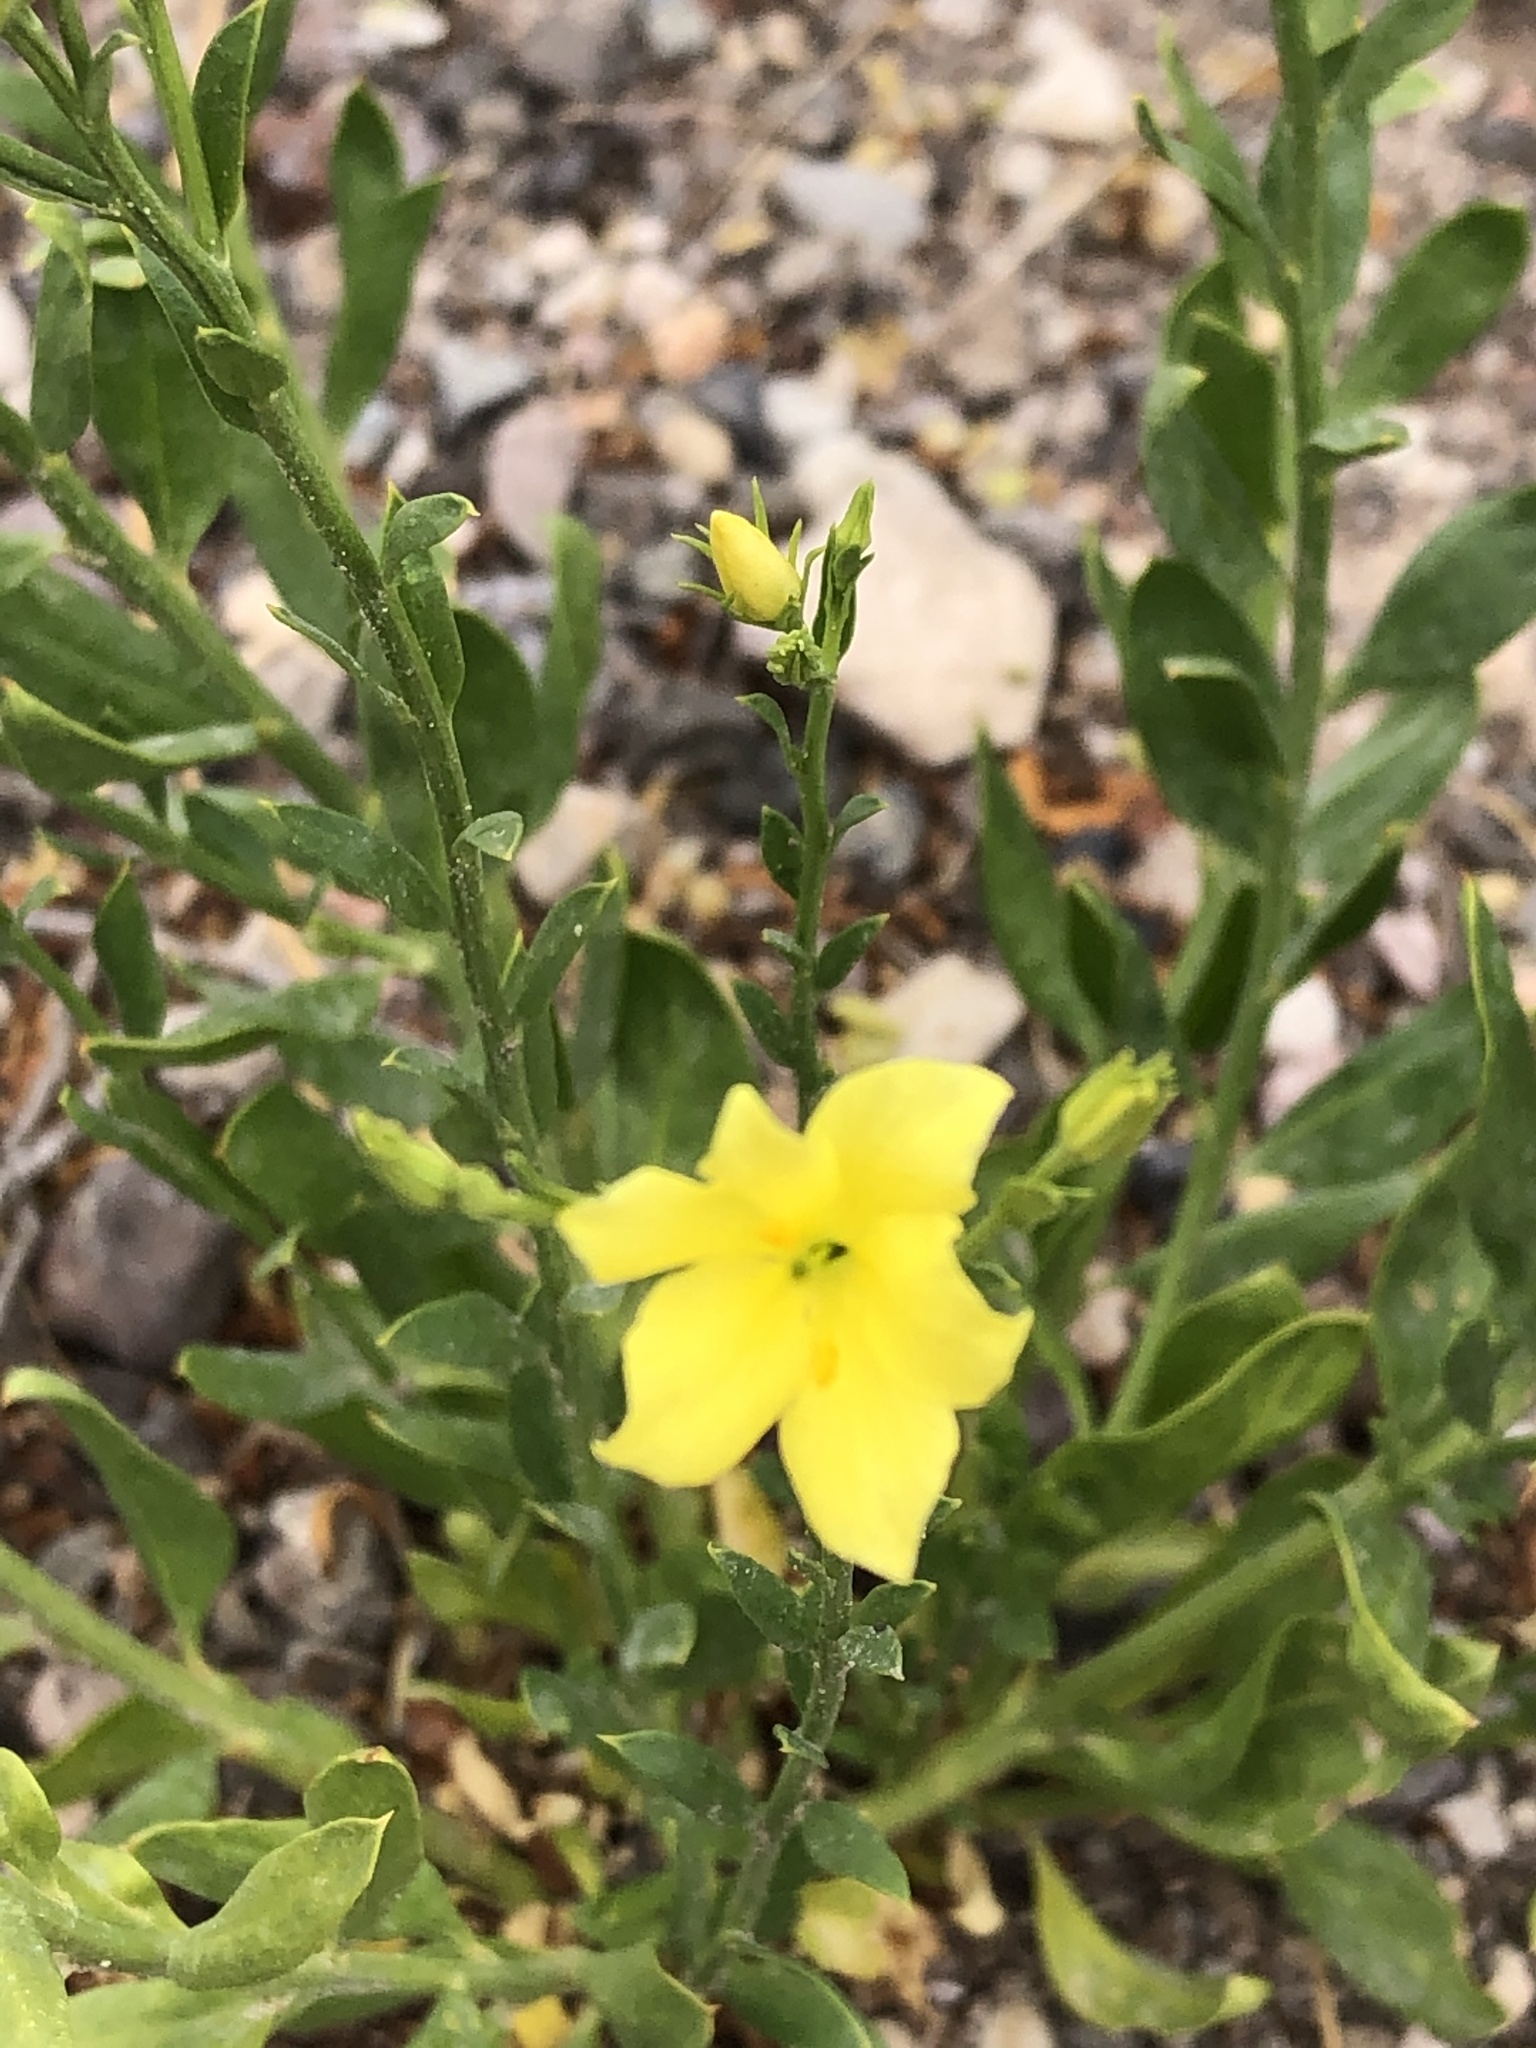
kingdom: Plantae
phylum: Tracheophyta
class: Magnoliopsida
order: Lamiales
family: Oleaceae
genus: Menodora
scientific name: Menodora scabra
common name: Rough menodora
